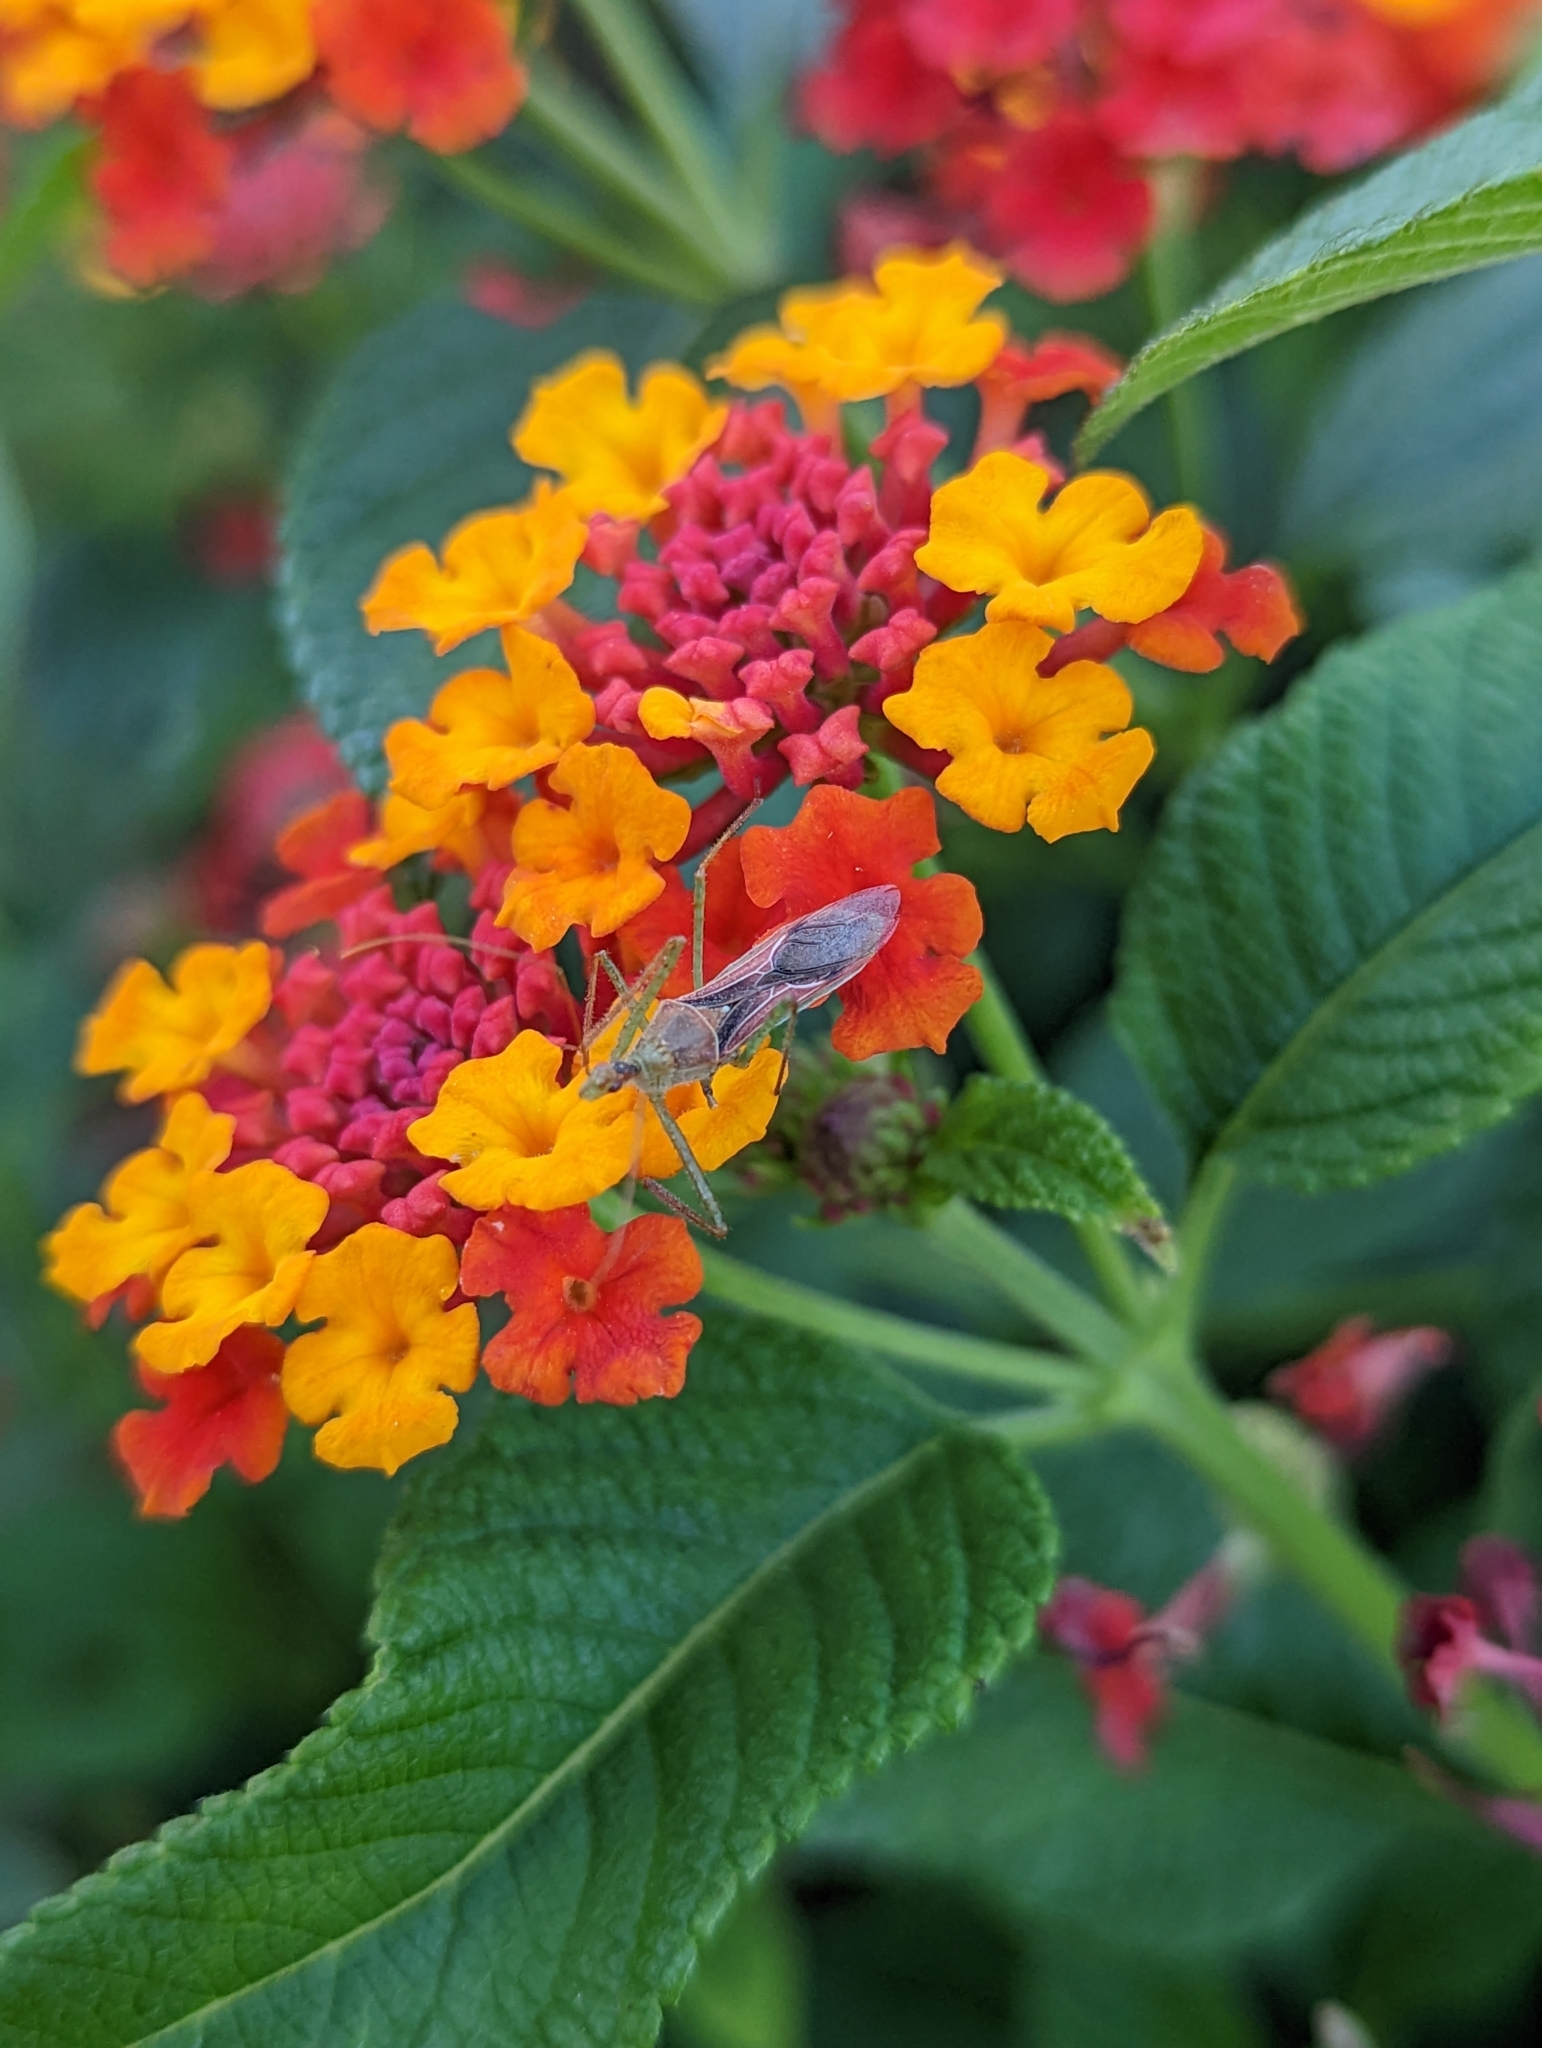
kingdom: Animalia
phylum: Arthropoda
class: Insecta
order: Hemiptera
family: Reduviidae
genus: Zelus
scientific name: Zelus renardii
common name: Assassin bug
